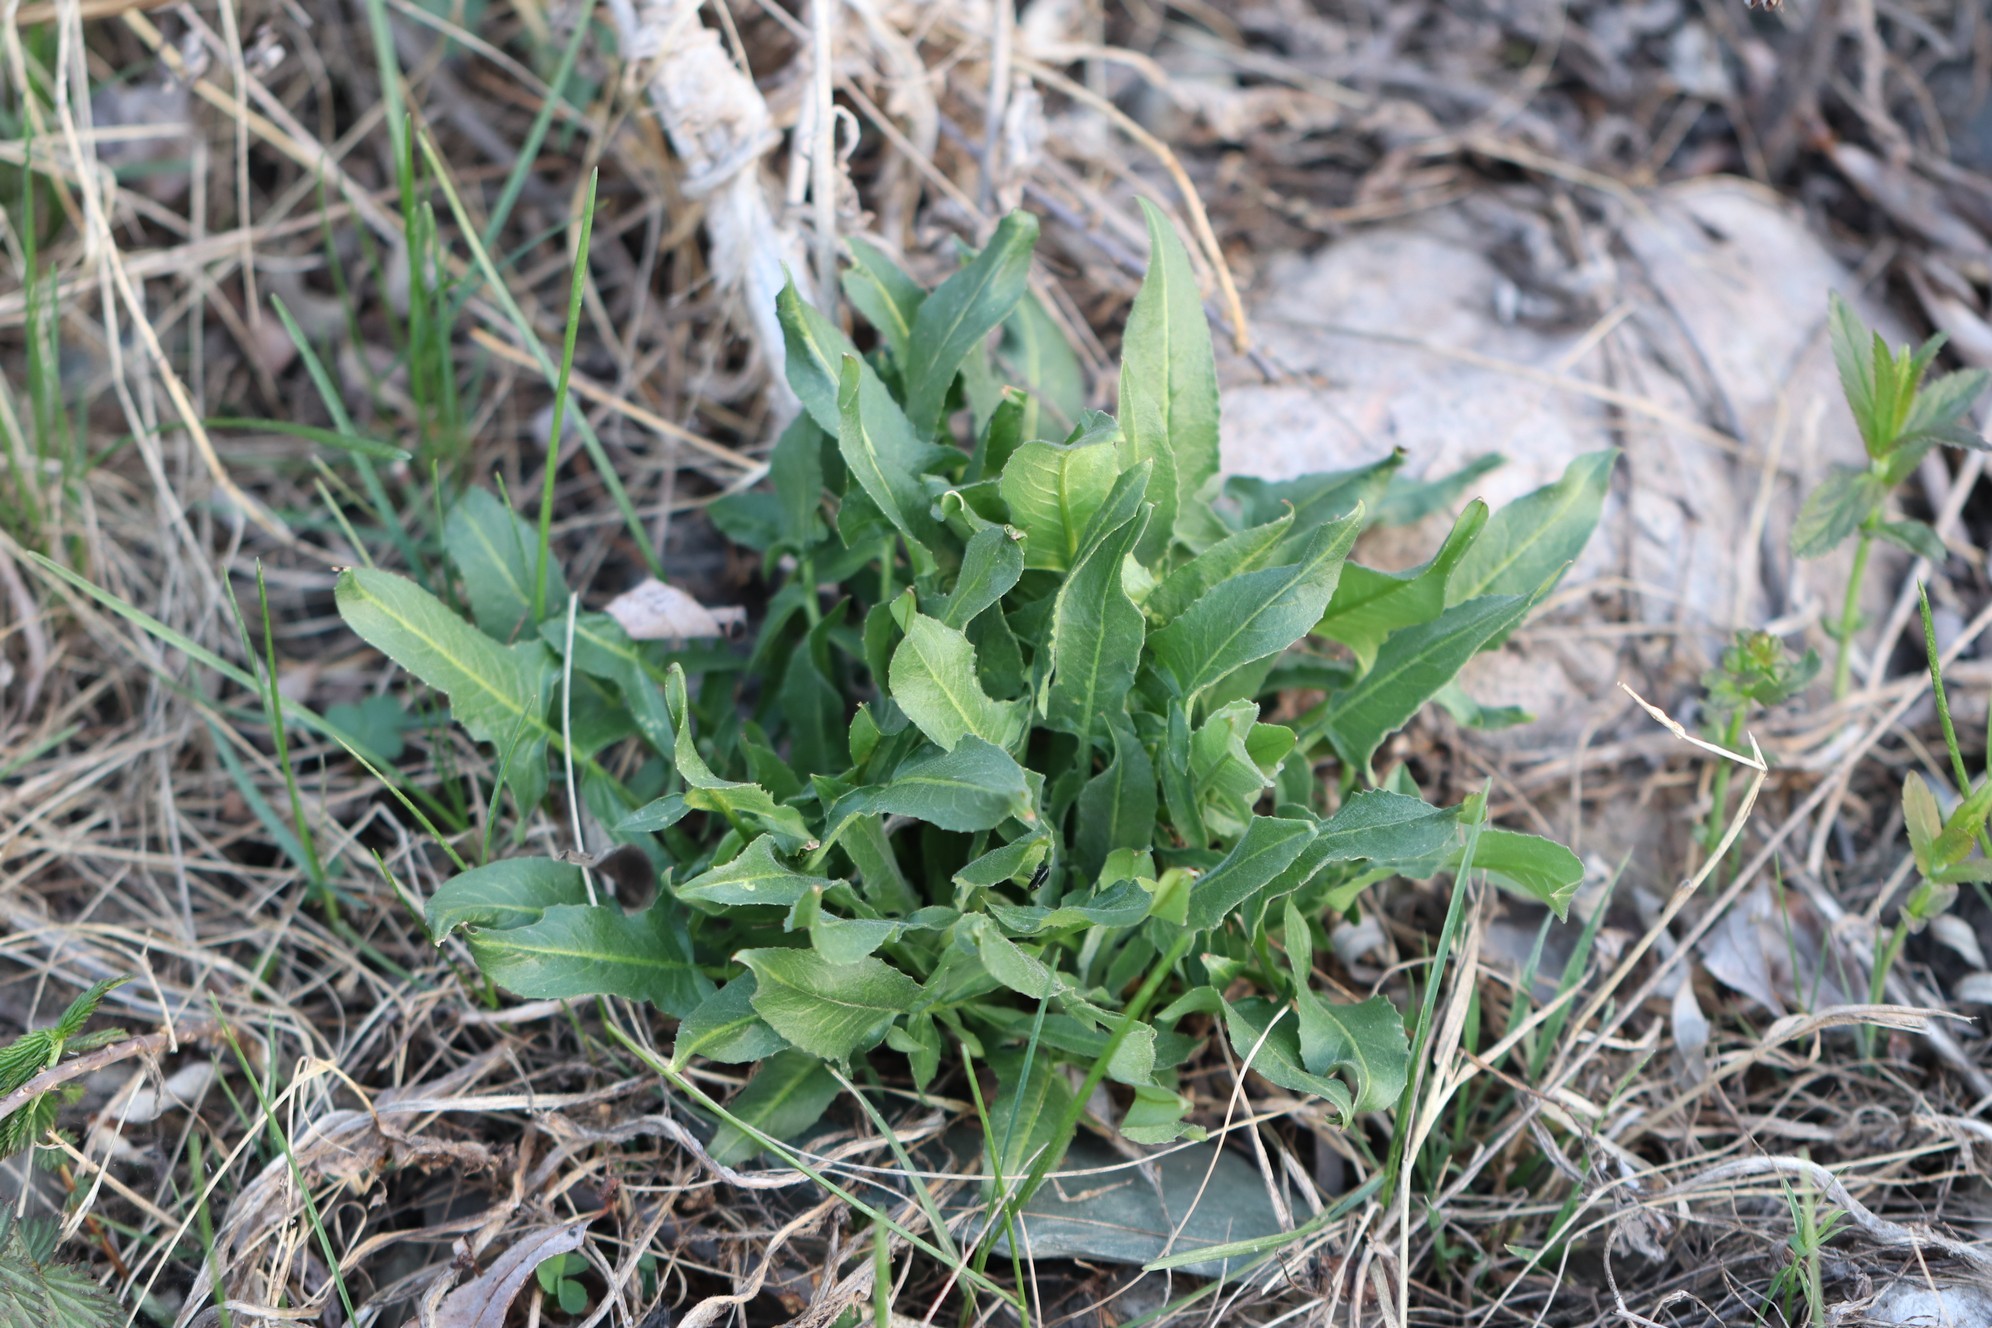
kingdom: Plantae
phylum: Tracheophyta
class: Magnoliopsida
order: Brassicales
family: Brassicaceae
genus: Bunias
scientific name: Bunias orientalis
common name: Warty-cabbage
